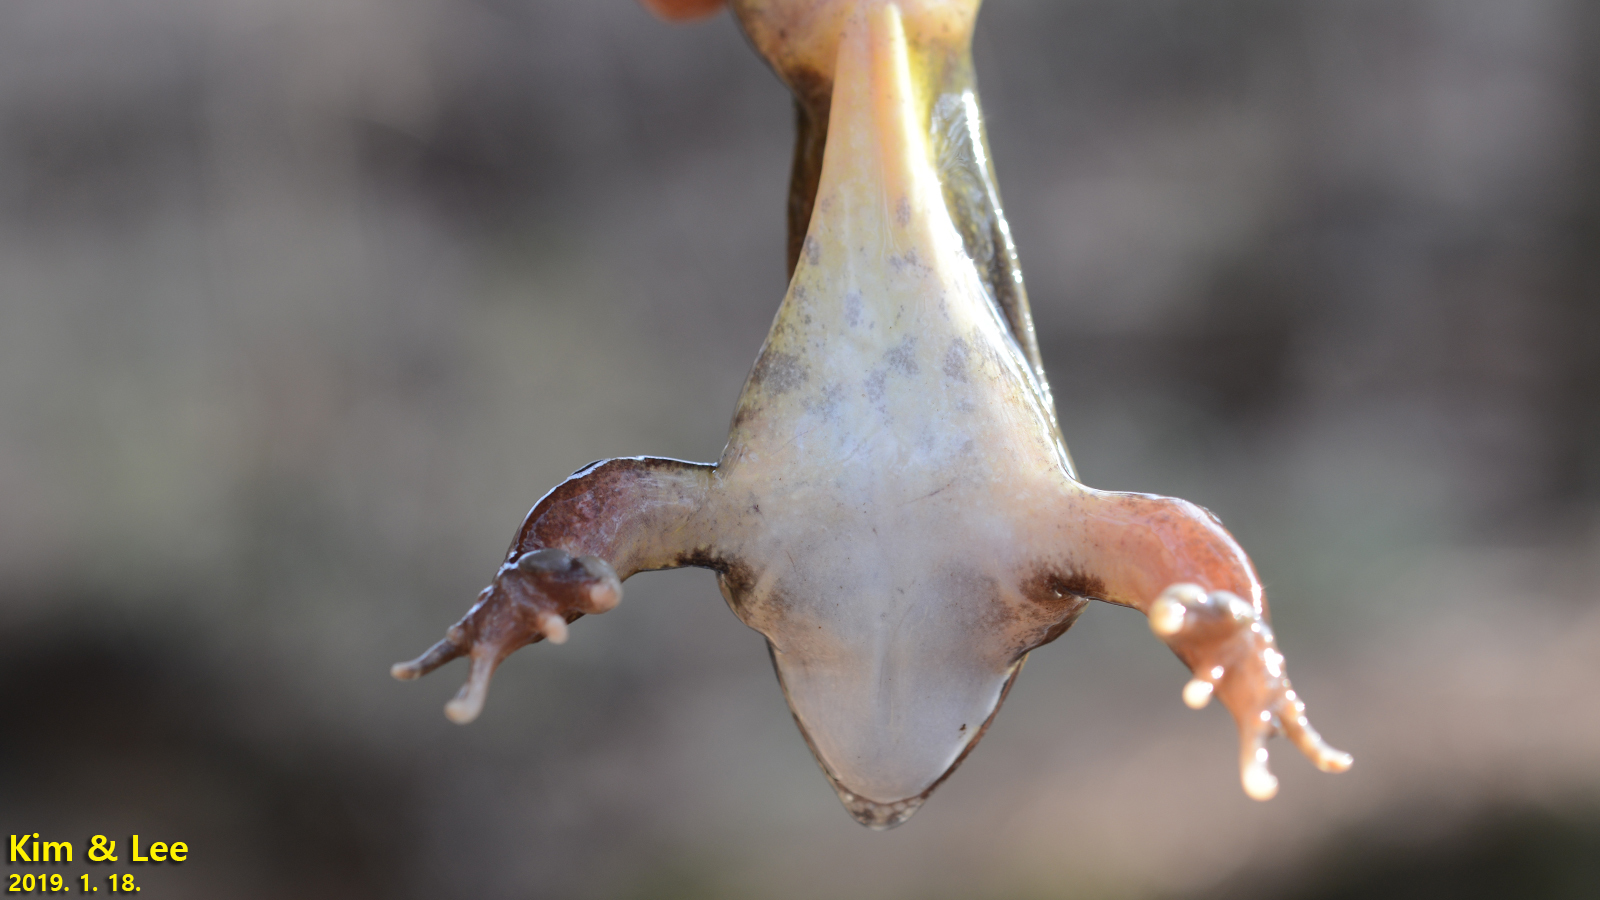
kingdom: Animalia
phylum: Chordata
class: Amphibia
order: Anura
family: Ranidae
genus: Rana
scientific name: Rana uenoi
